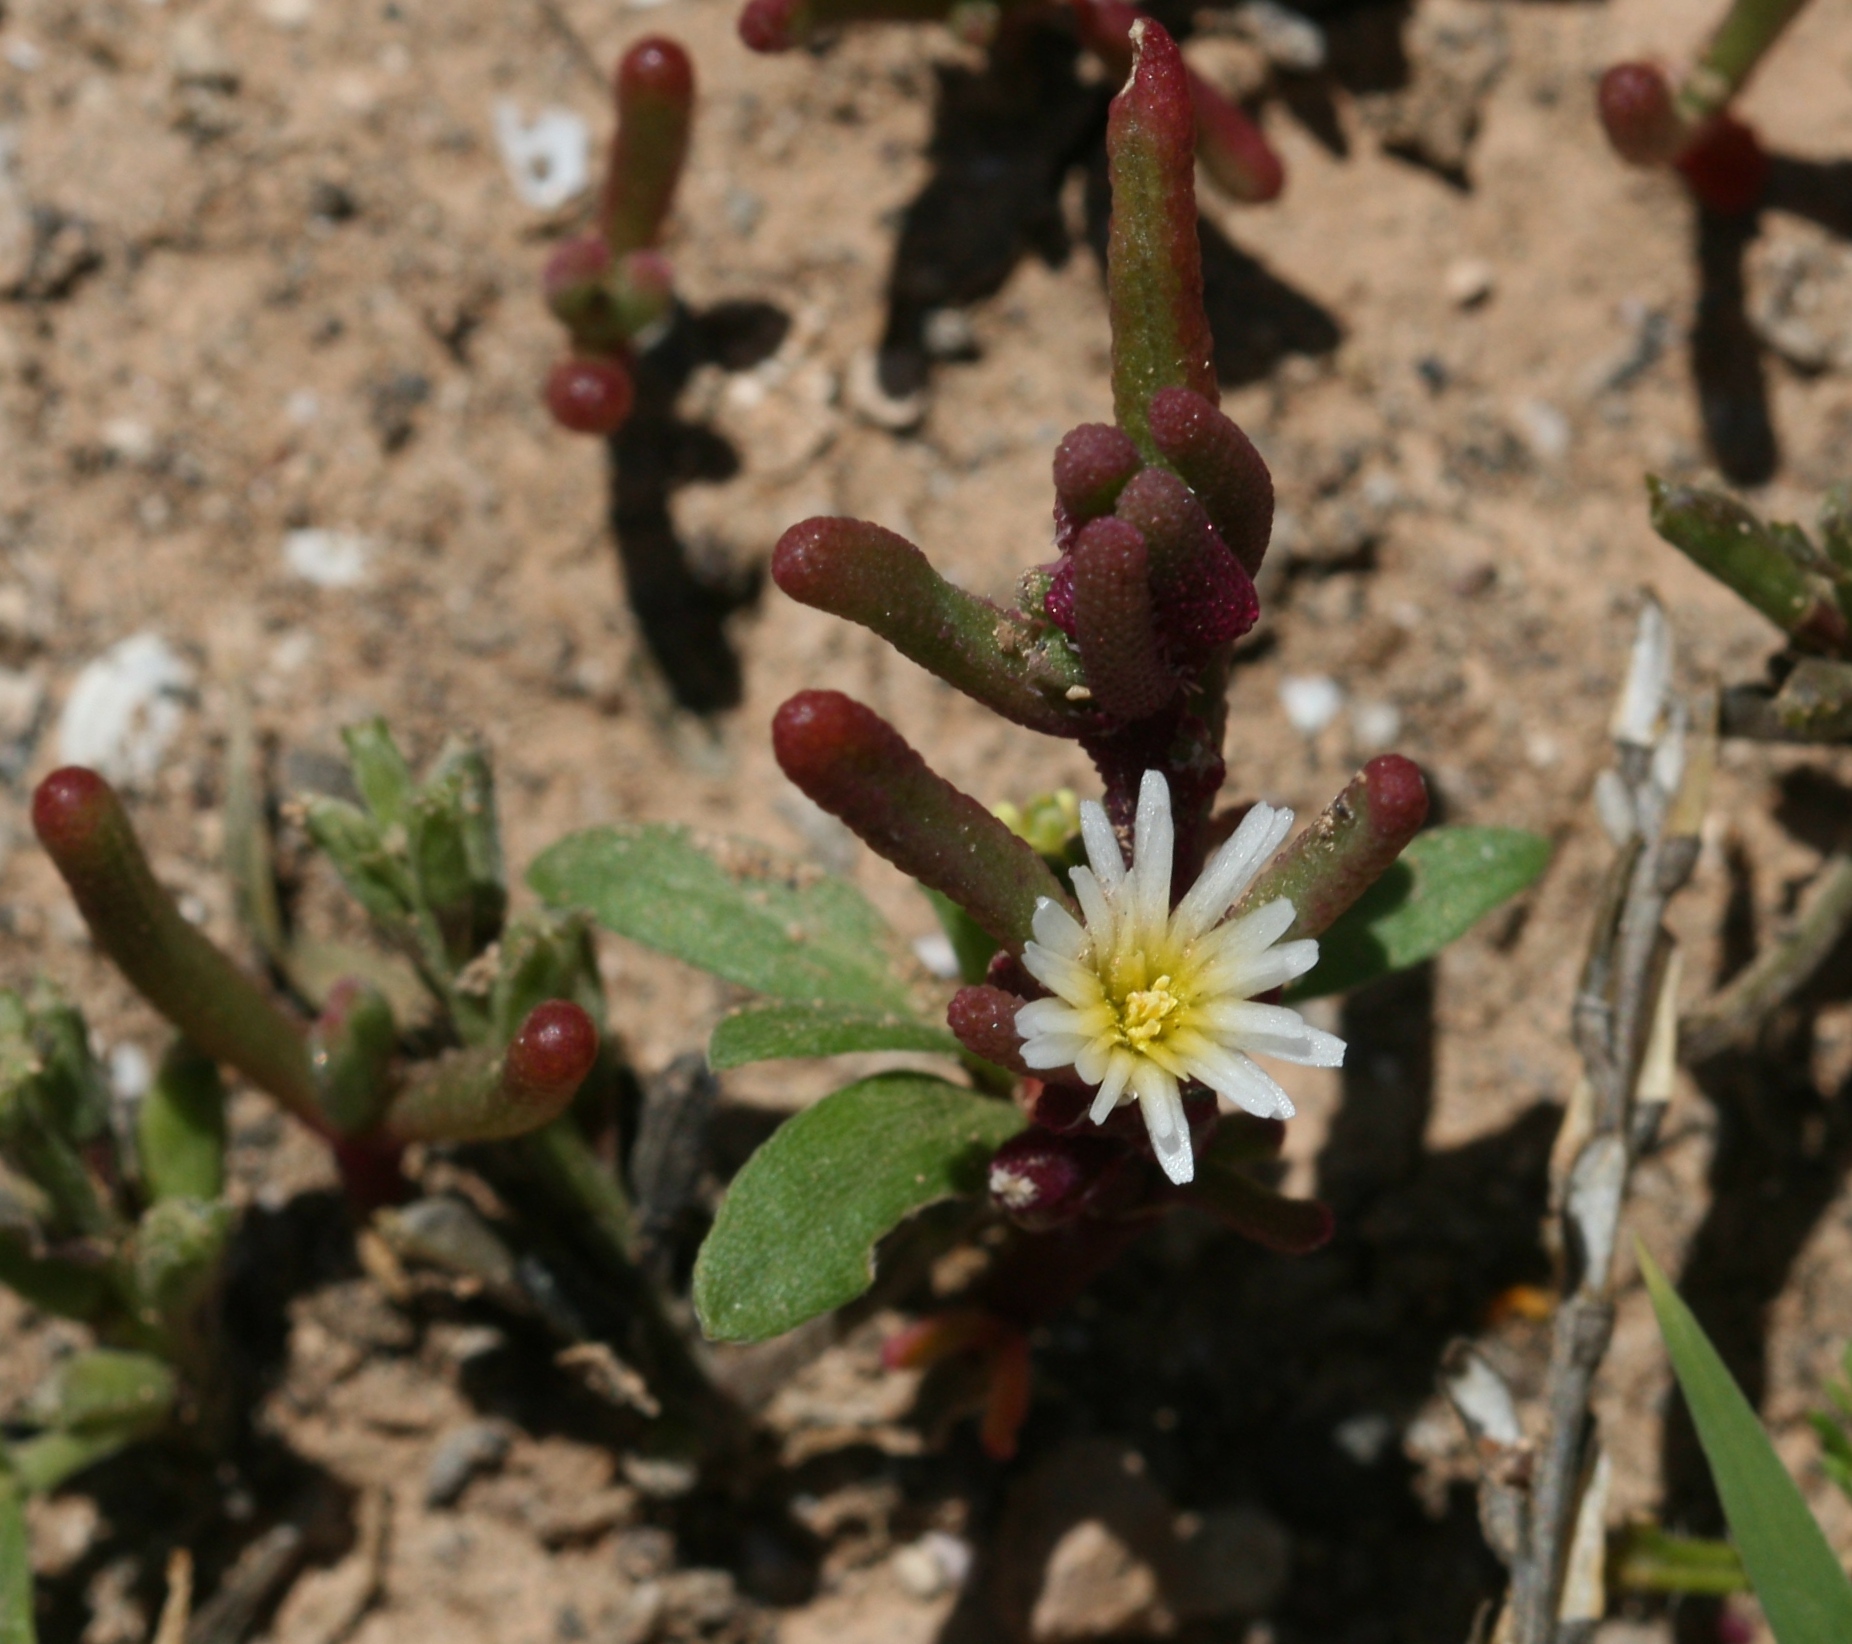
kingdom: Plantae
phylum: Tracheophyta
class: Magnoliopsida
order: Caryophyllales
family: Aizoaceae
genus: Mesembryanthemum
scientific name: Mesembryanthemum nodiflorum
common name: Slenderleaf iceplant
